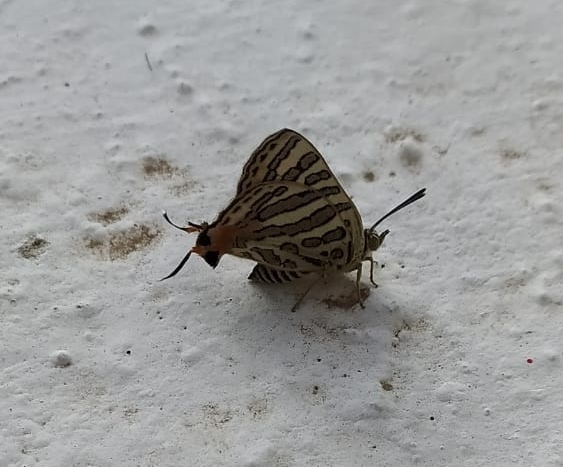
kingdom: Animalia
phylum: Arthropoda
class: Insecta
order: Lepidoptera
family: Lycaenidae
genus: Cigaritis
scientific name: Cigaritis
